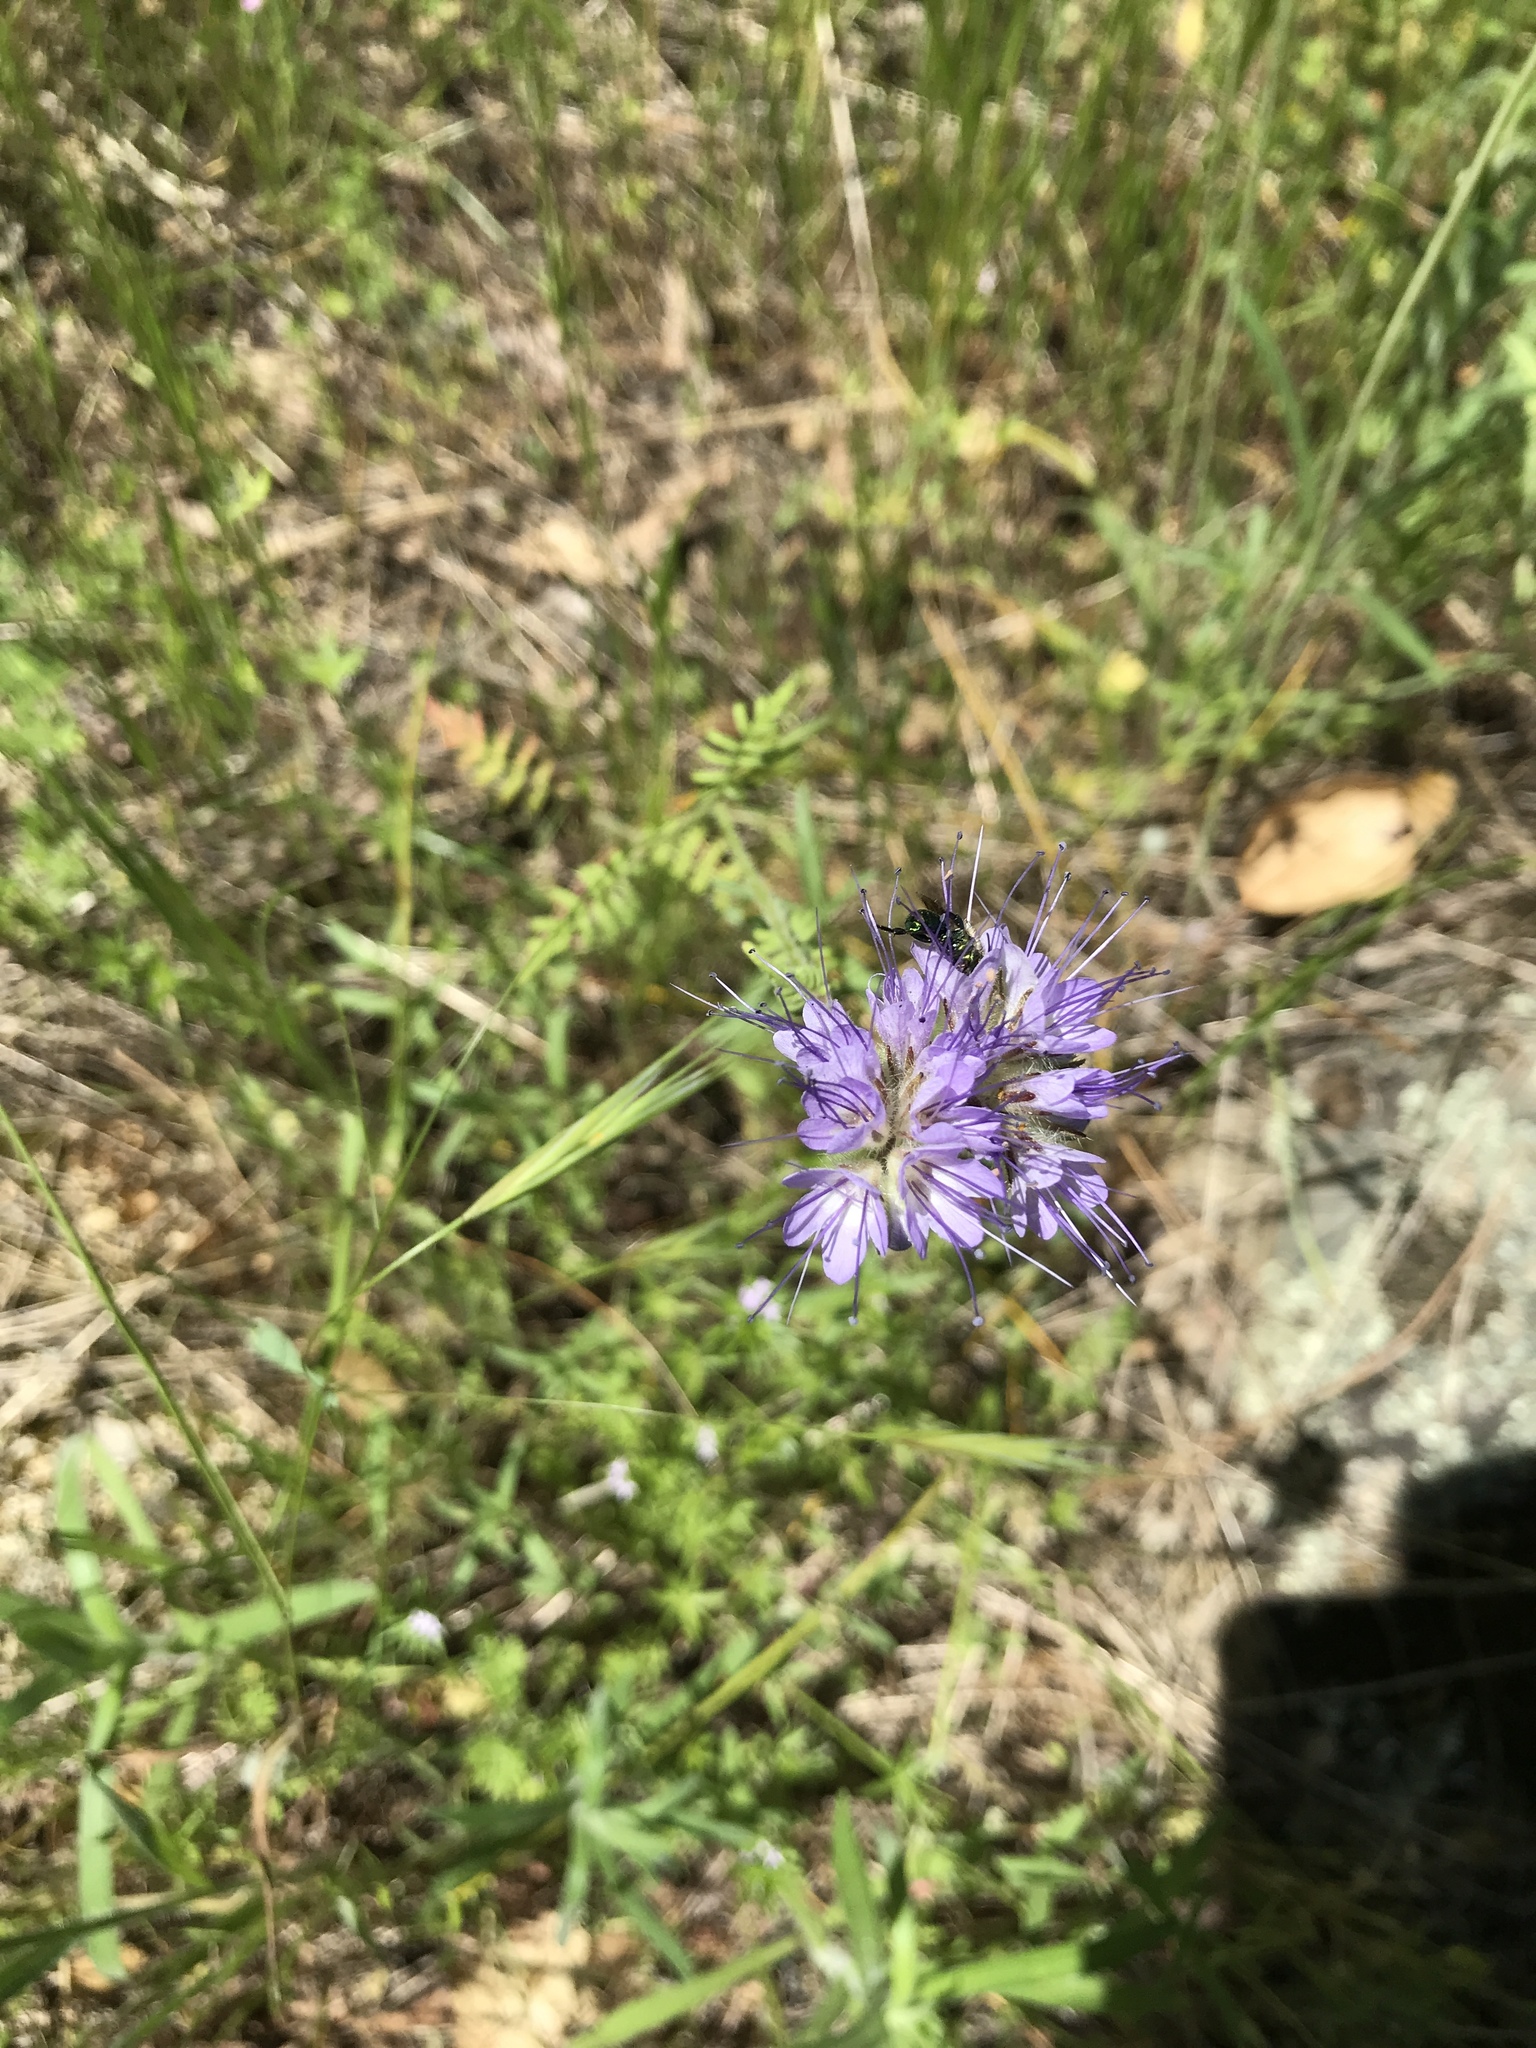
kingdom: Plantae
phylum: Tracheophyta
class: Magnoliopsida
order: Boraginales
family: Hydrophyllaceae
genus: Phacelia
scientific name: Phacelia tanacetifolia
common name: Phacelia
